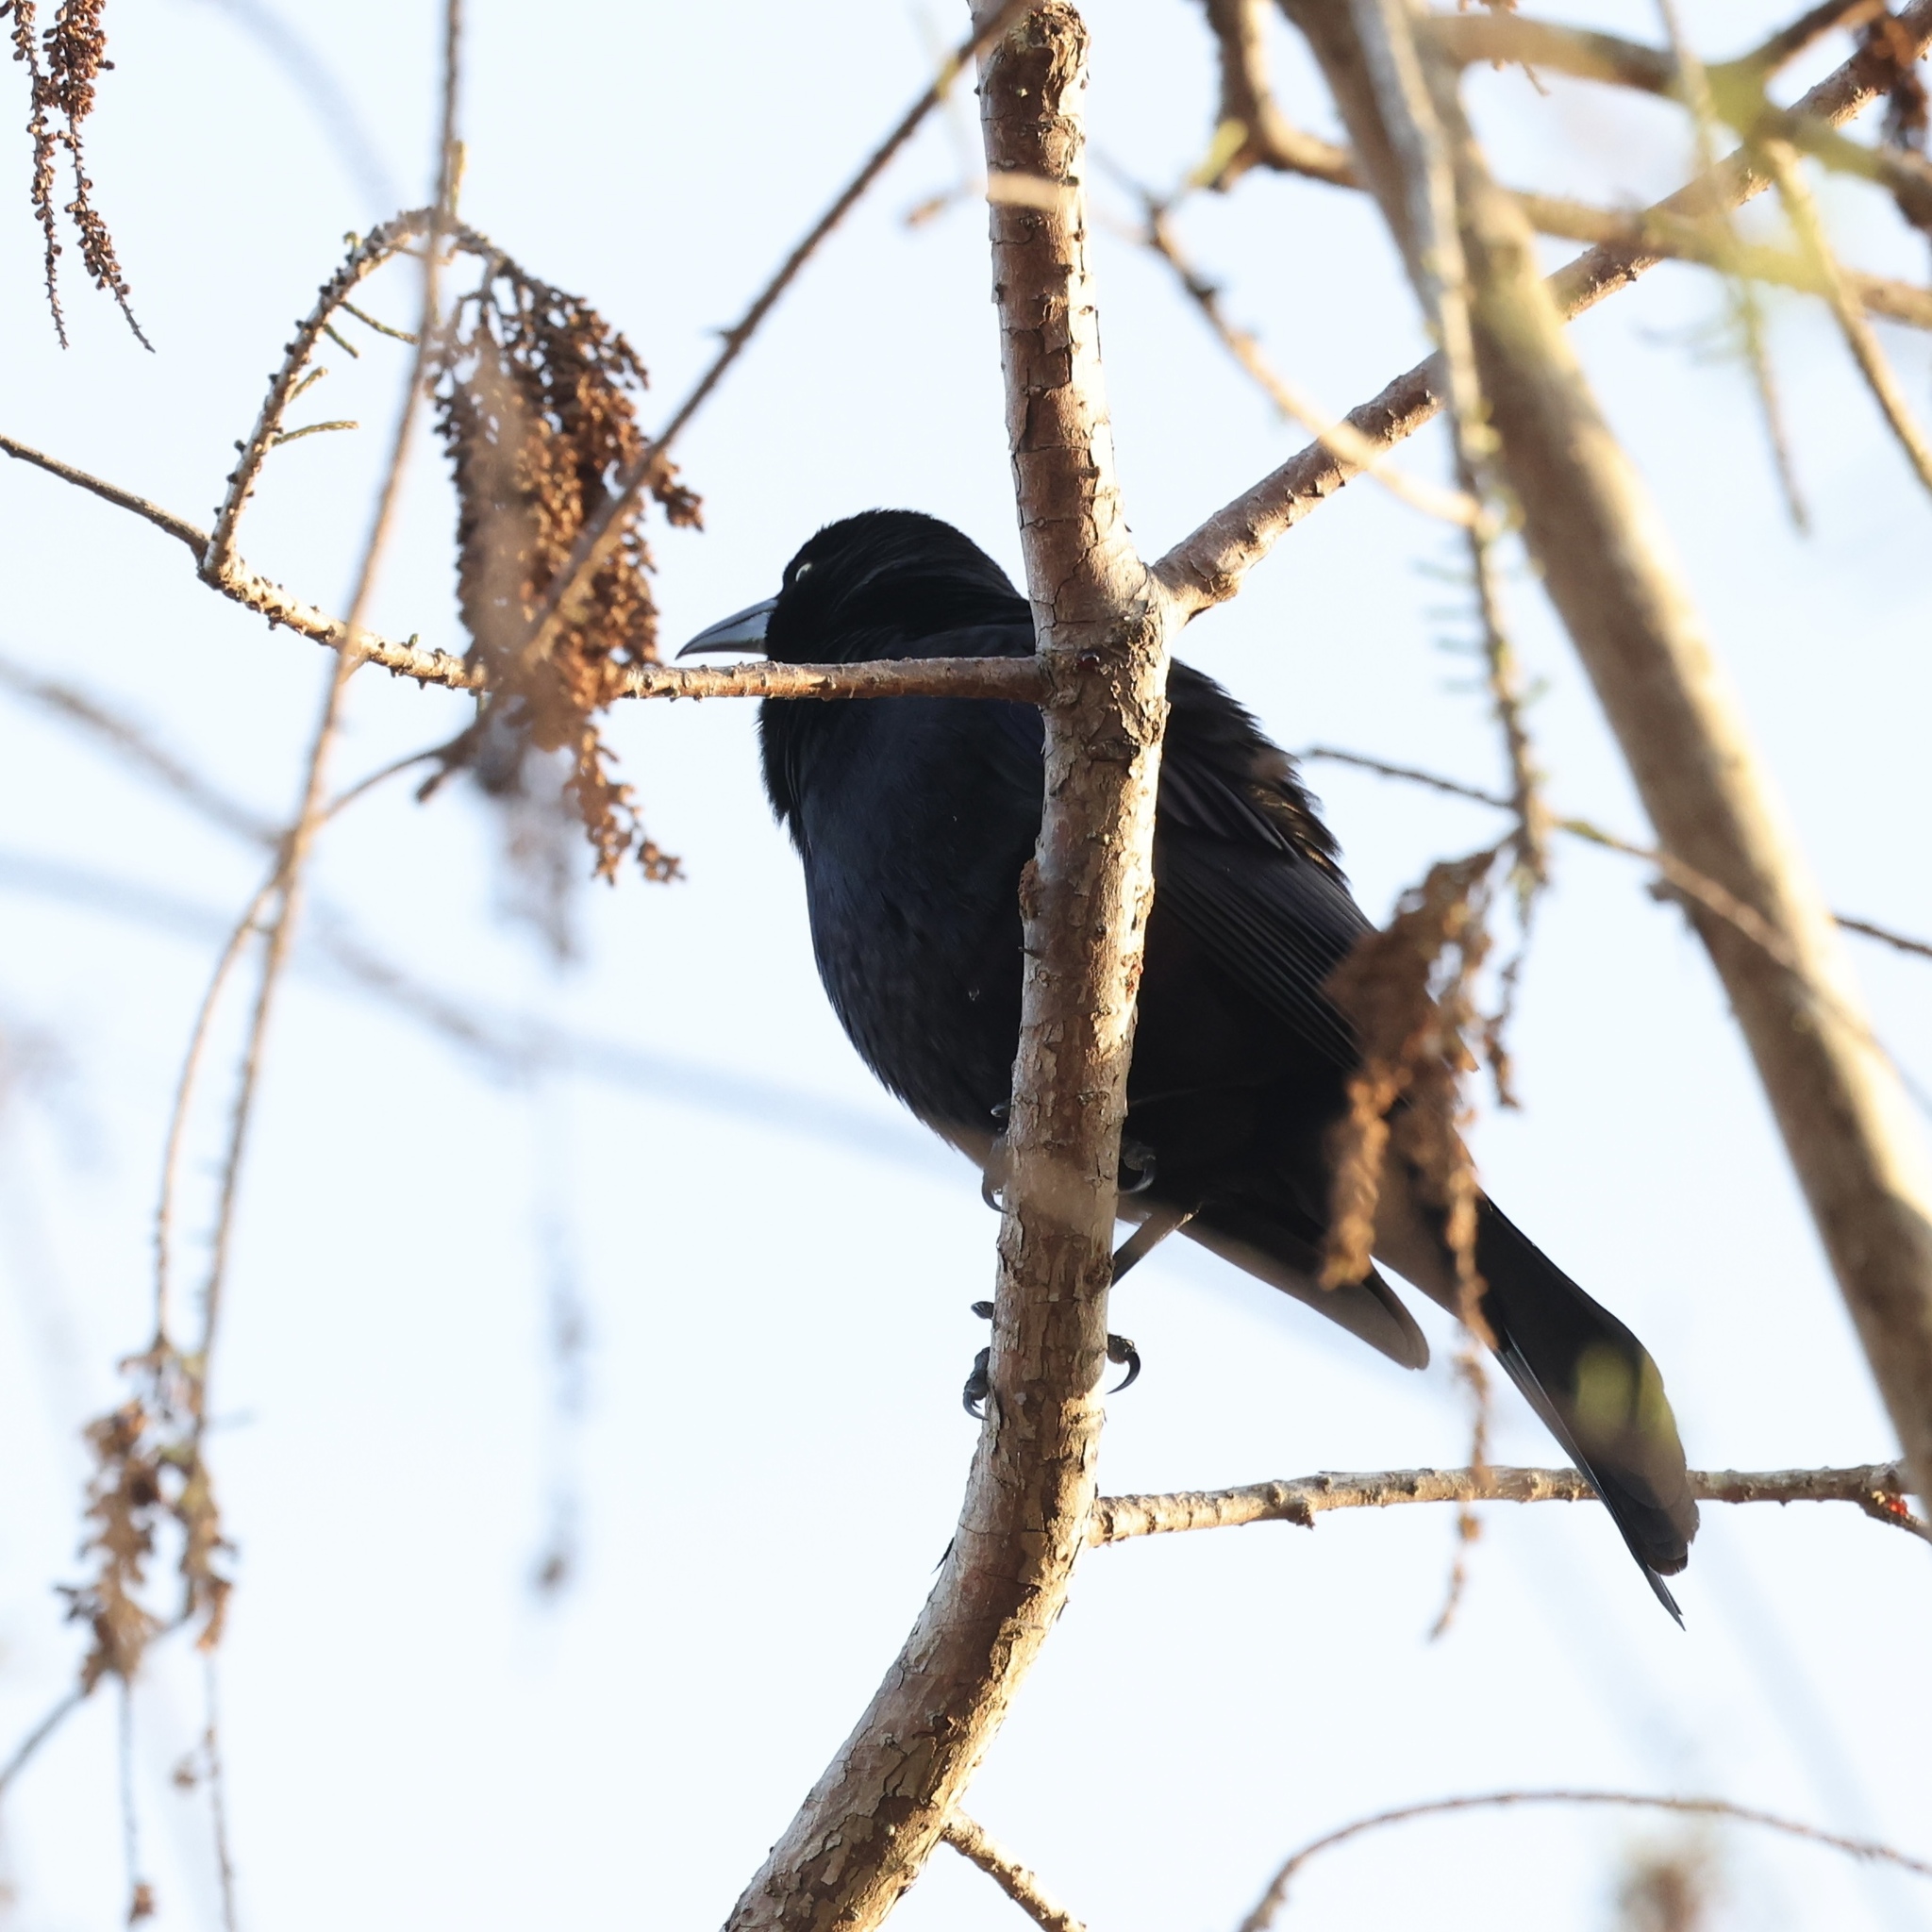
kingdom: Animalia
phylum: Chordata
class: Aves
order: Passeriformes
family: Icteridae
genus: Quiscalus
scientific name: Quiscalus quiscula
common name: Common grackle
